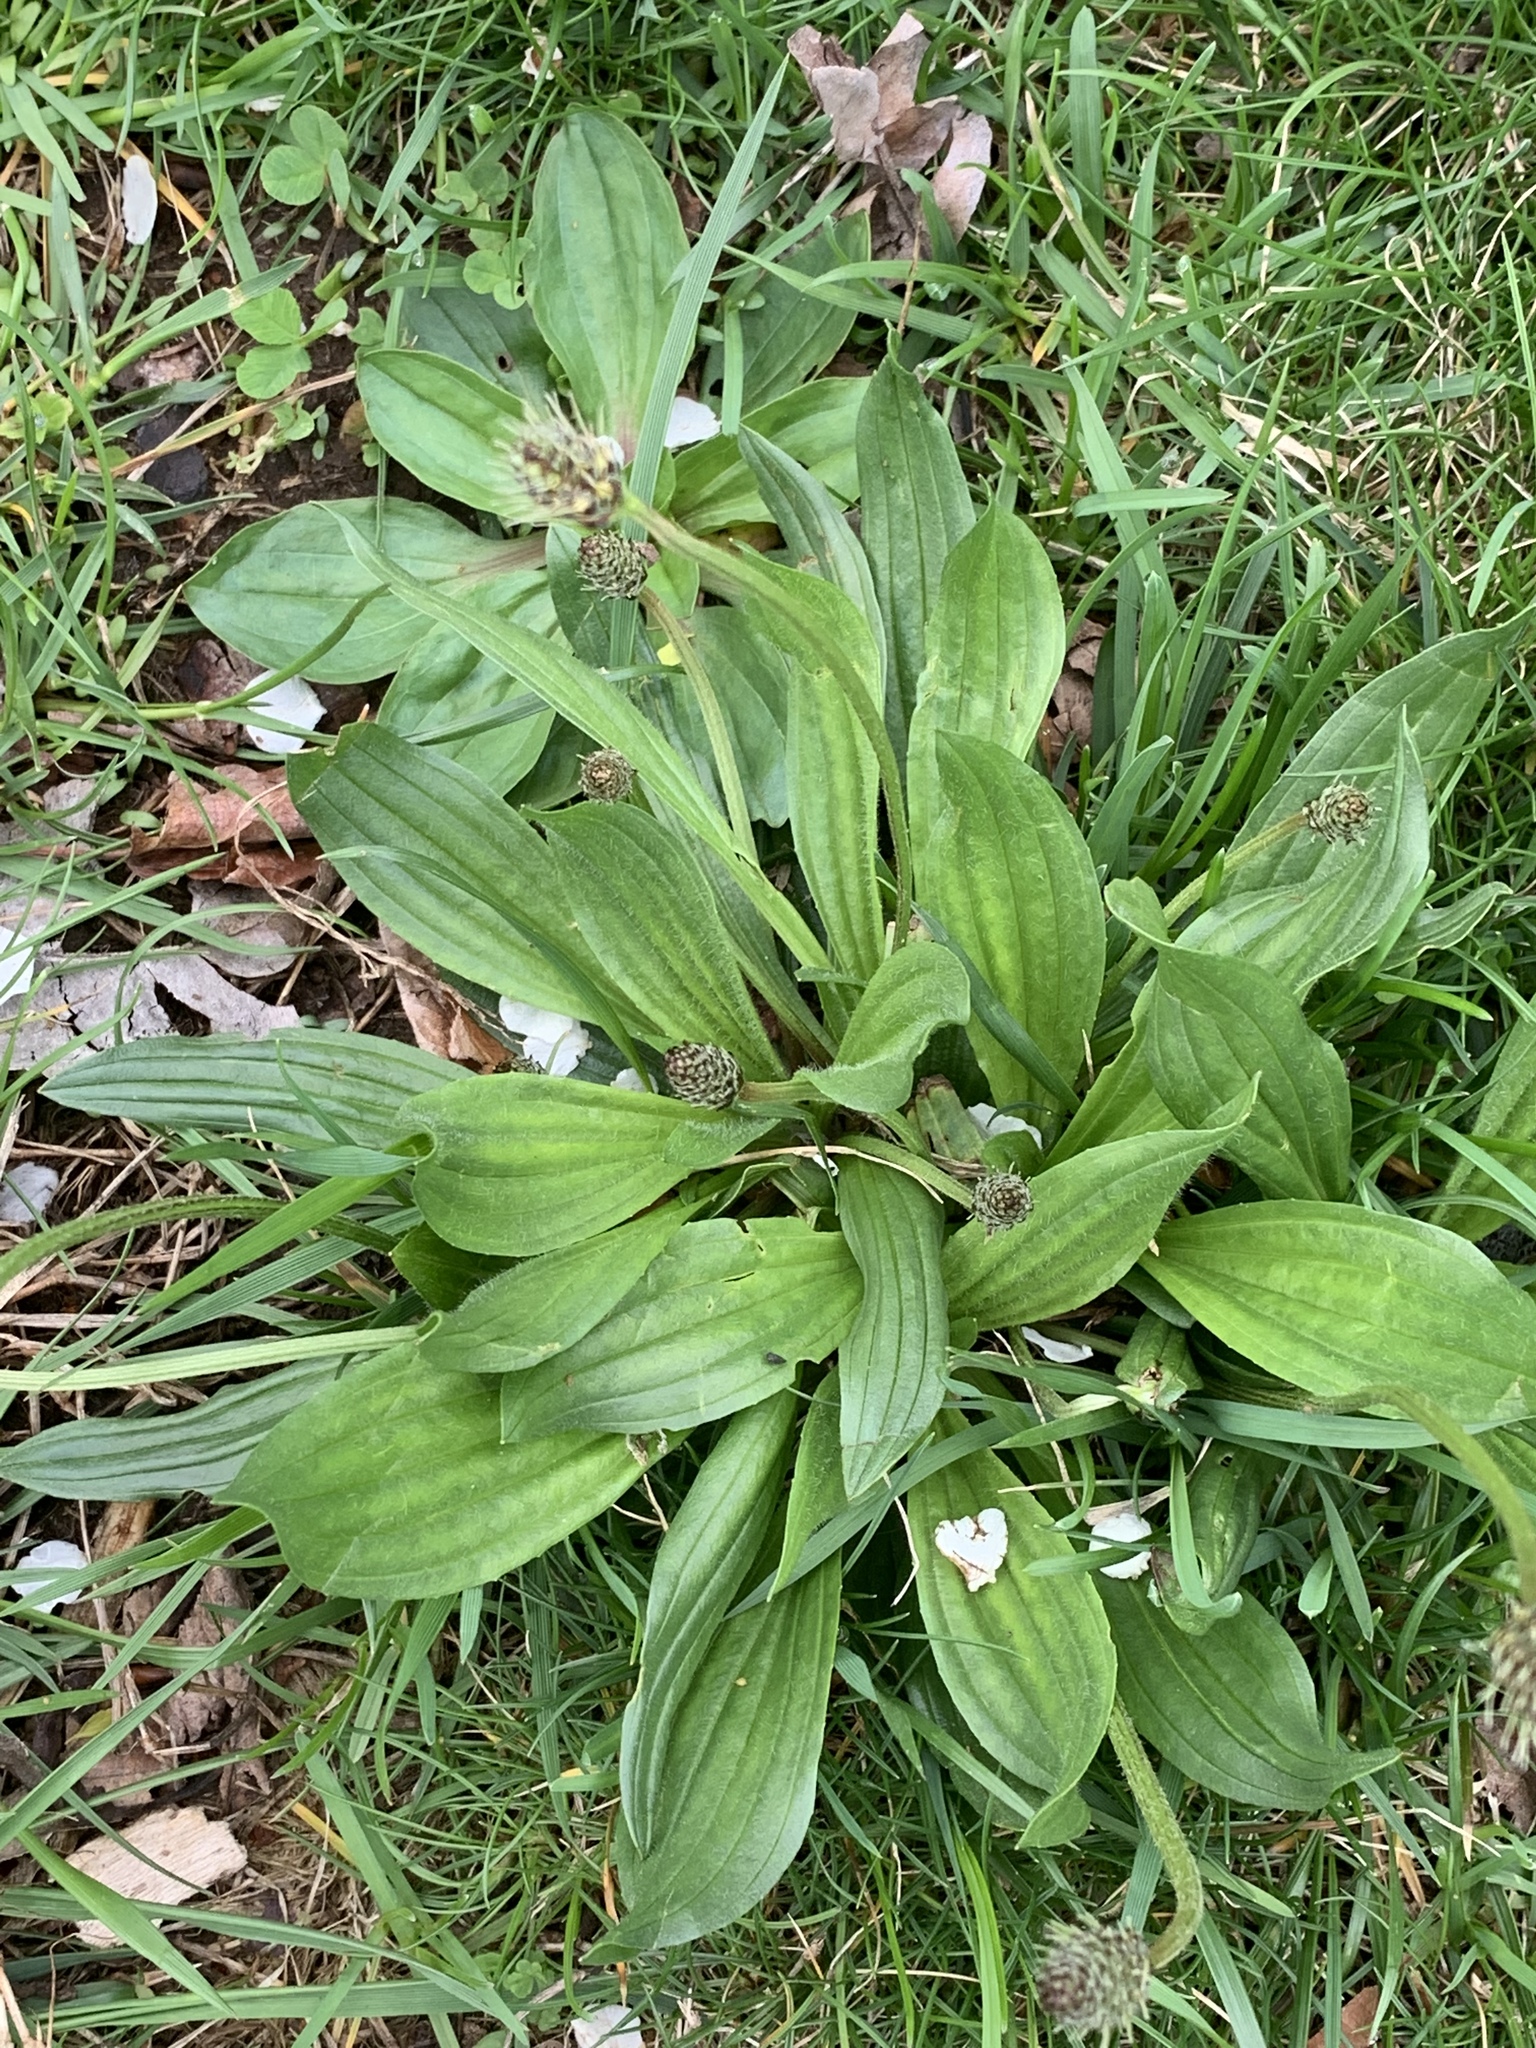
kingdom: Plantae
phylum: Tracheophyta
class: Magnoliopsida
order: Lamiales
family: Plantaginaceae
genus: Plantago
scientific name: Plantago lanceolata
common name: Ribwort plantain
